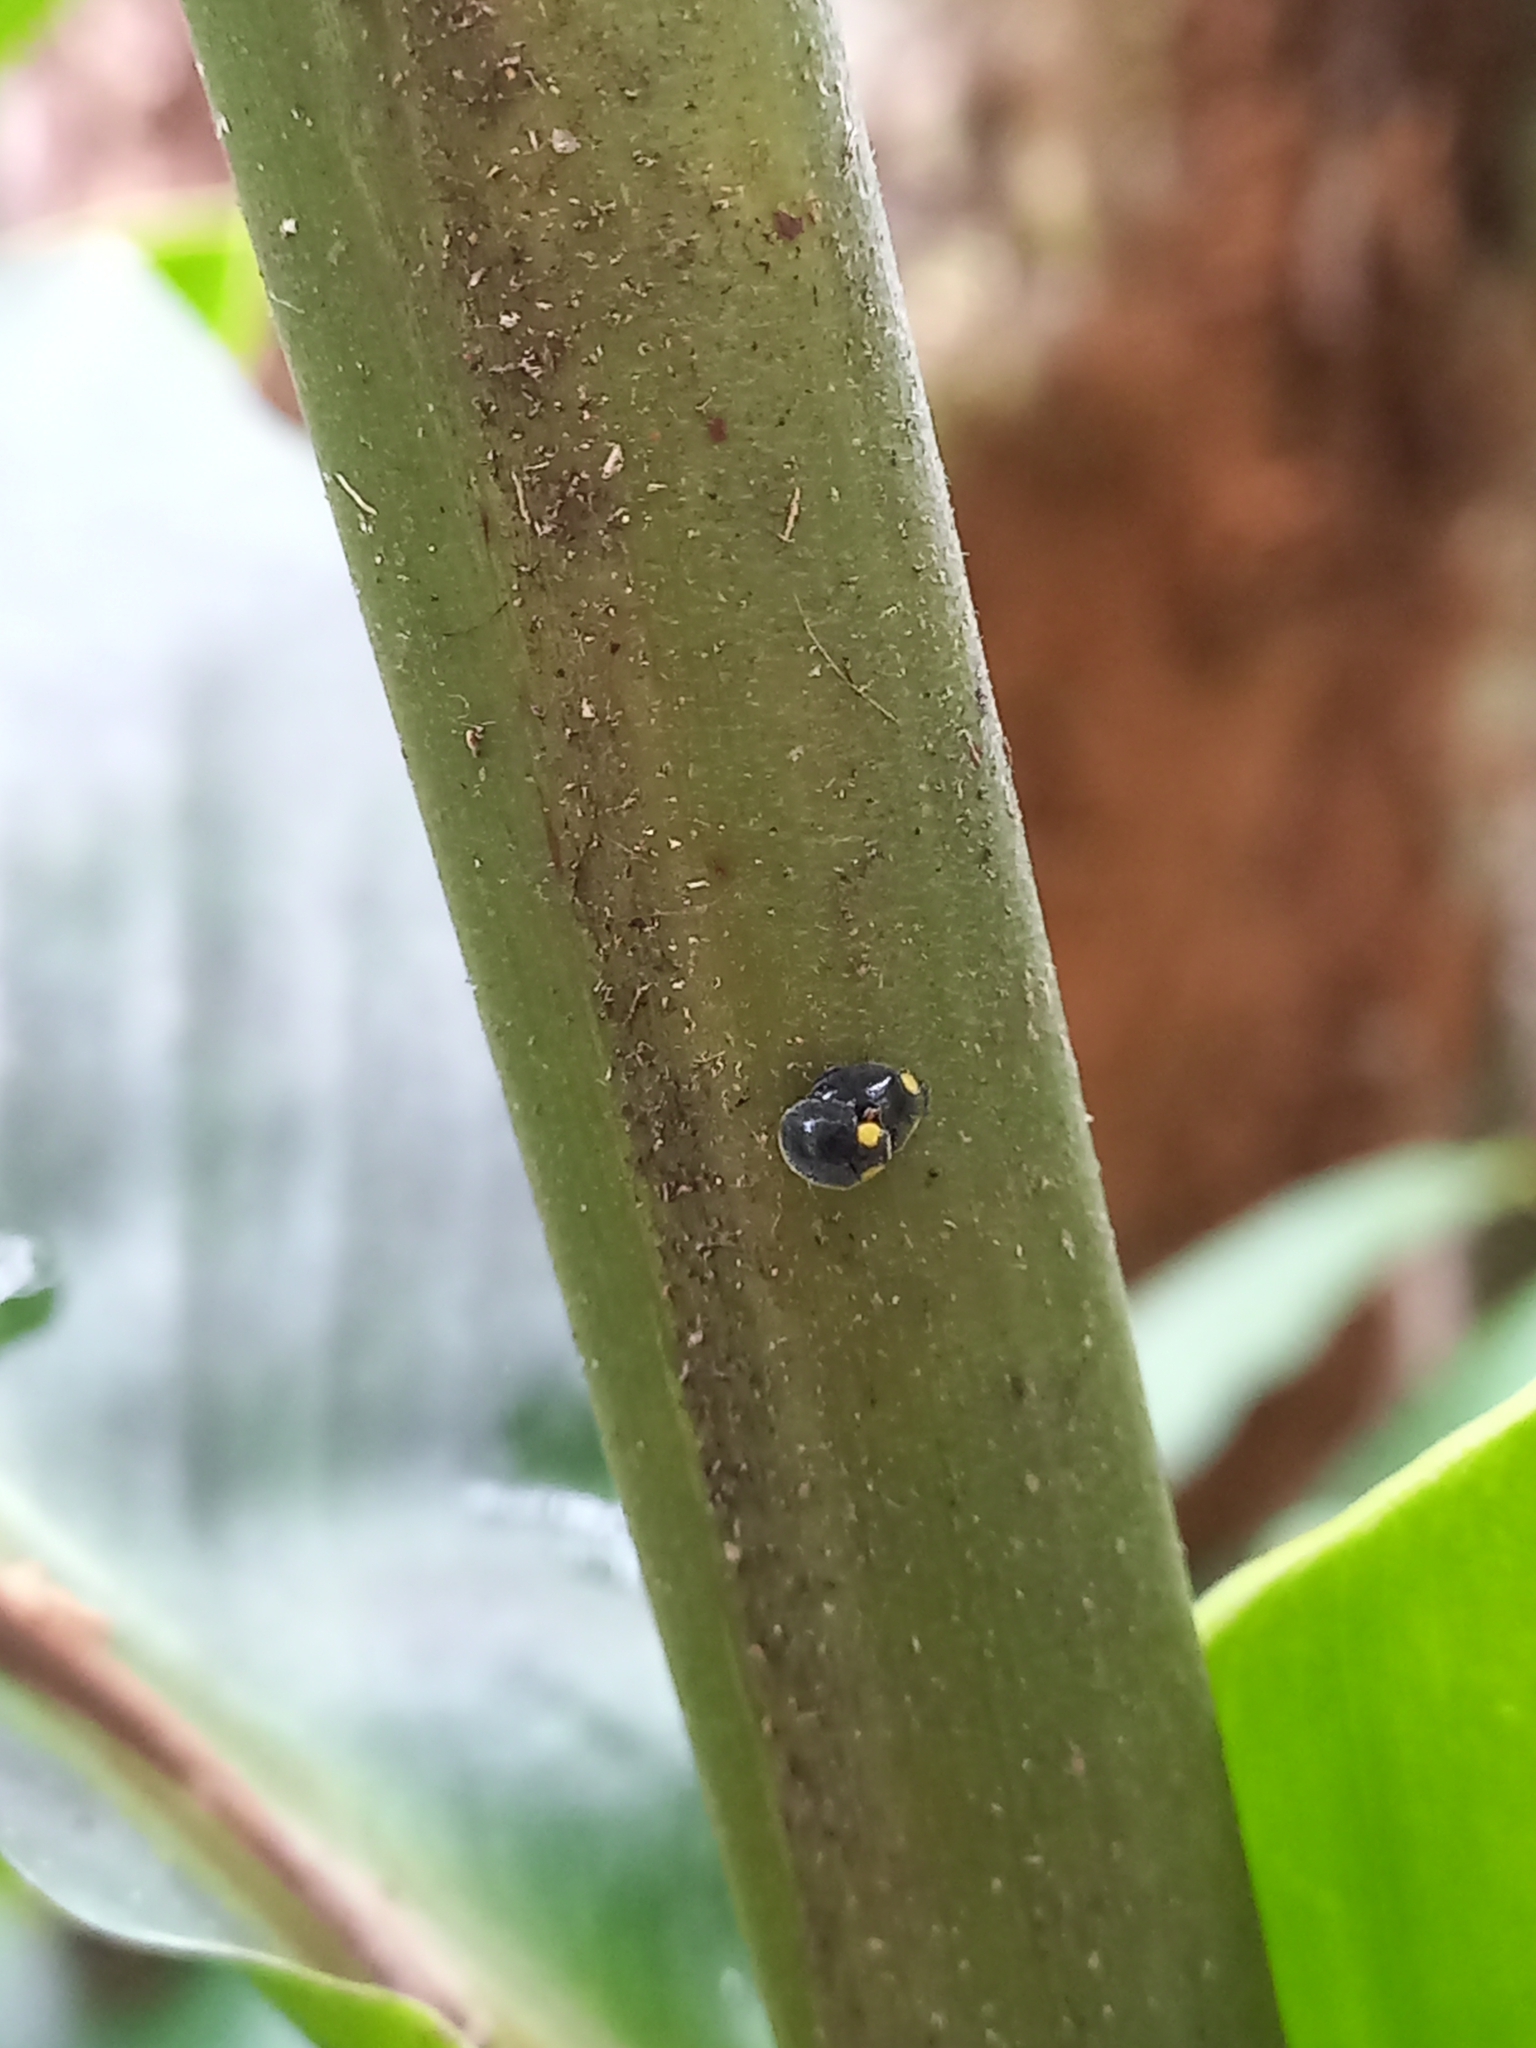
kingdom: Animalia
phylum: Arthropoda
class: Insecta
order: Coleoptera
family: Coccinellidae
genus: Scymnodes
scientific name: Scymnodes lividigaster
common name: Yellowshouldered lady beetle
